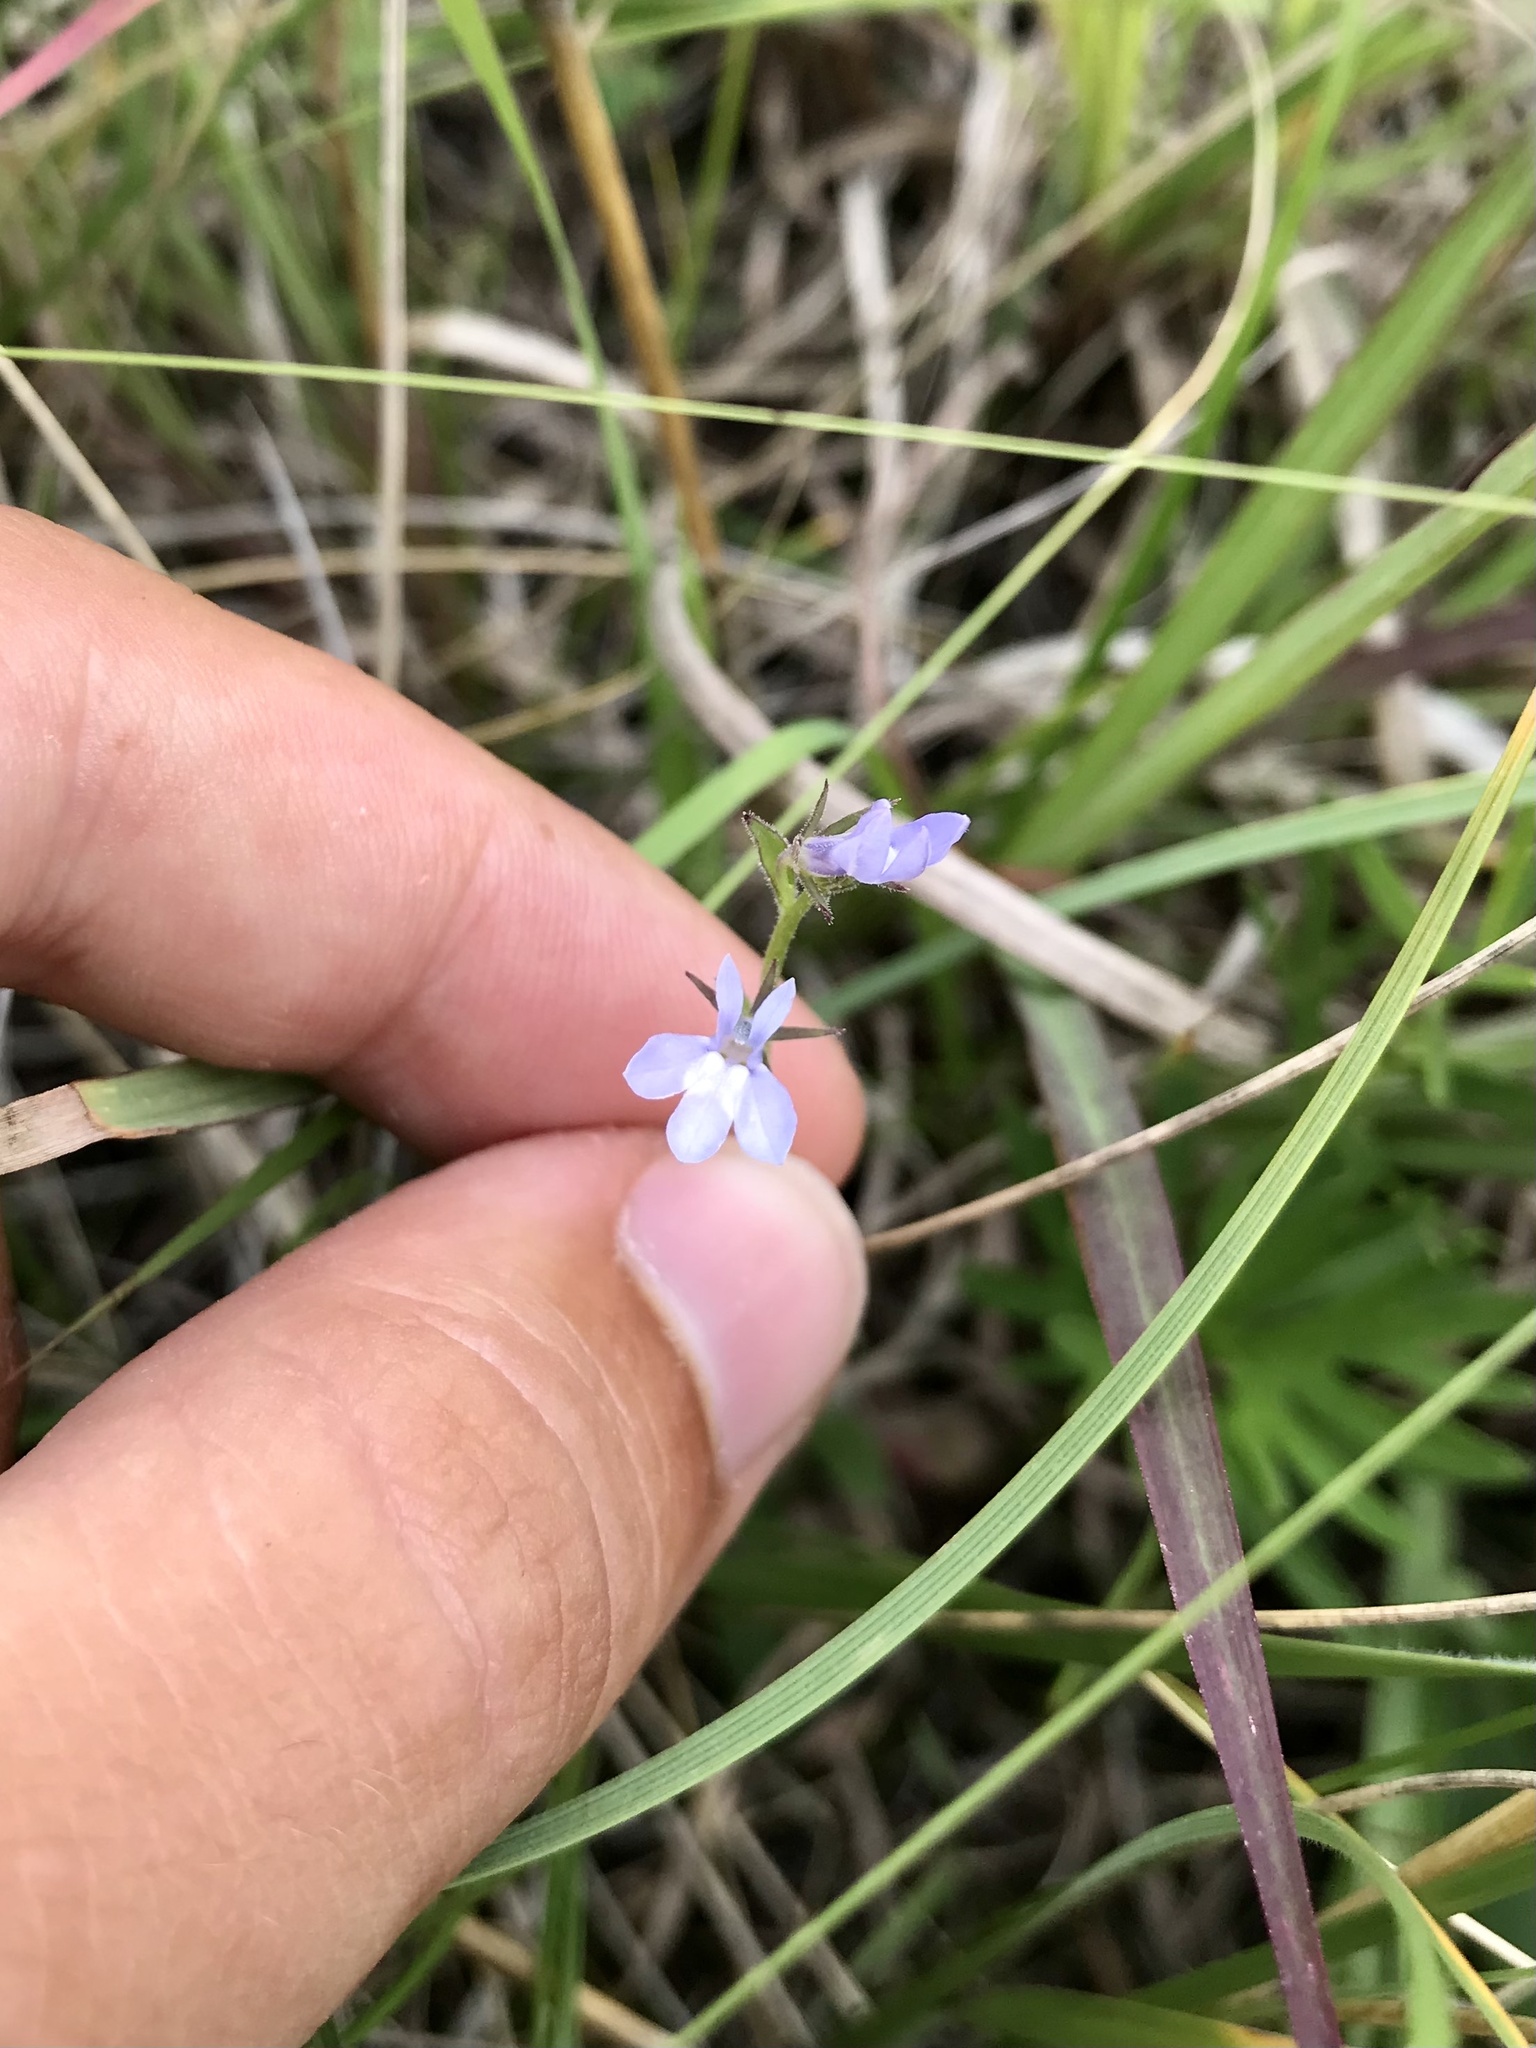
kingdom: Plantae
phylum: Tracheophyta
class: Magnoliopsida
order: Asterales
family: Campanulaceae
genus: Lobelia
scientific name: Lobelia kalmii
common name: Kalm's lobelia
